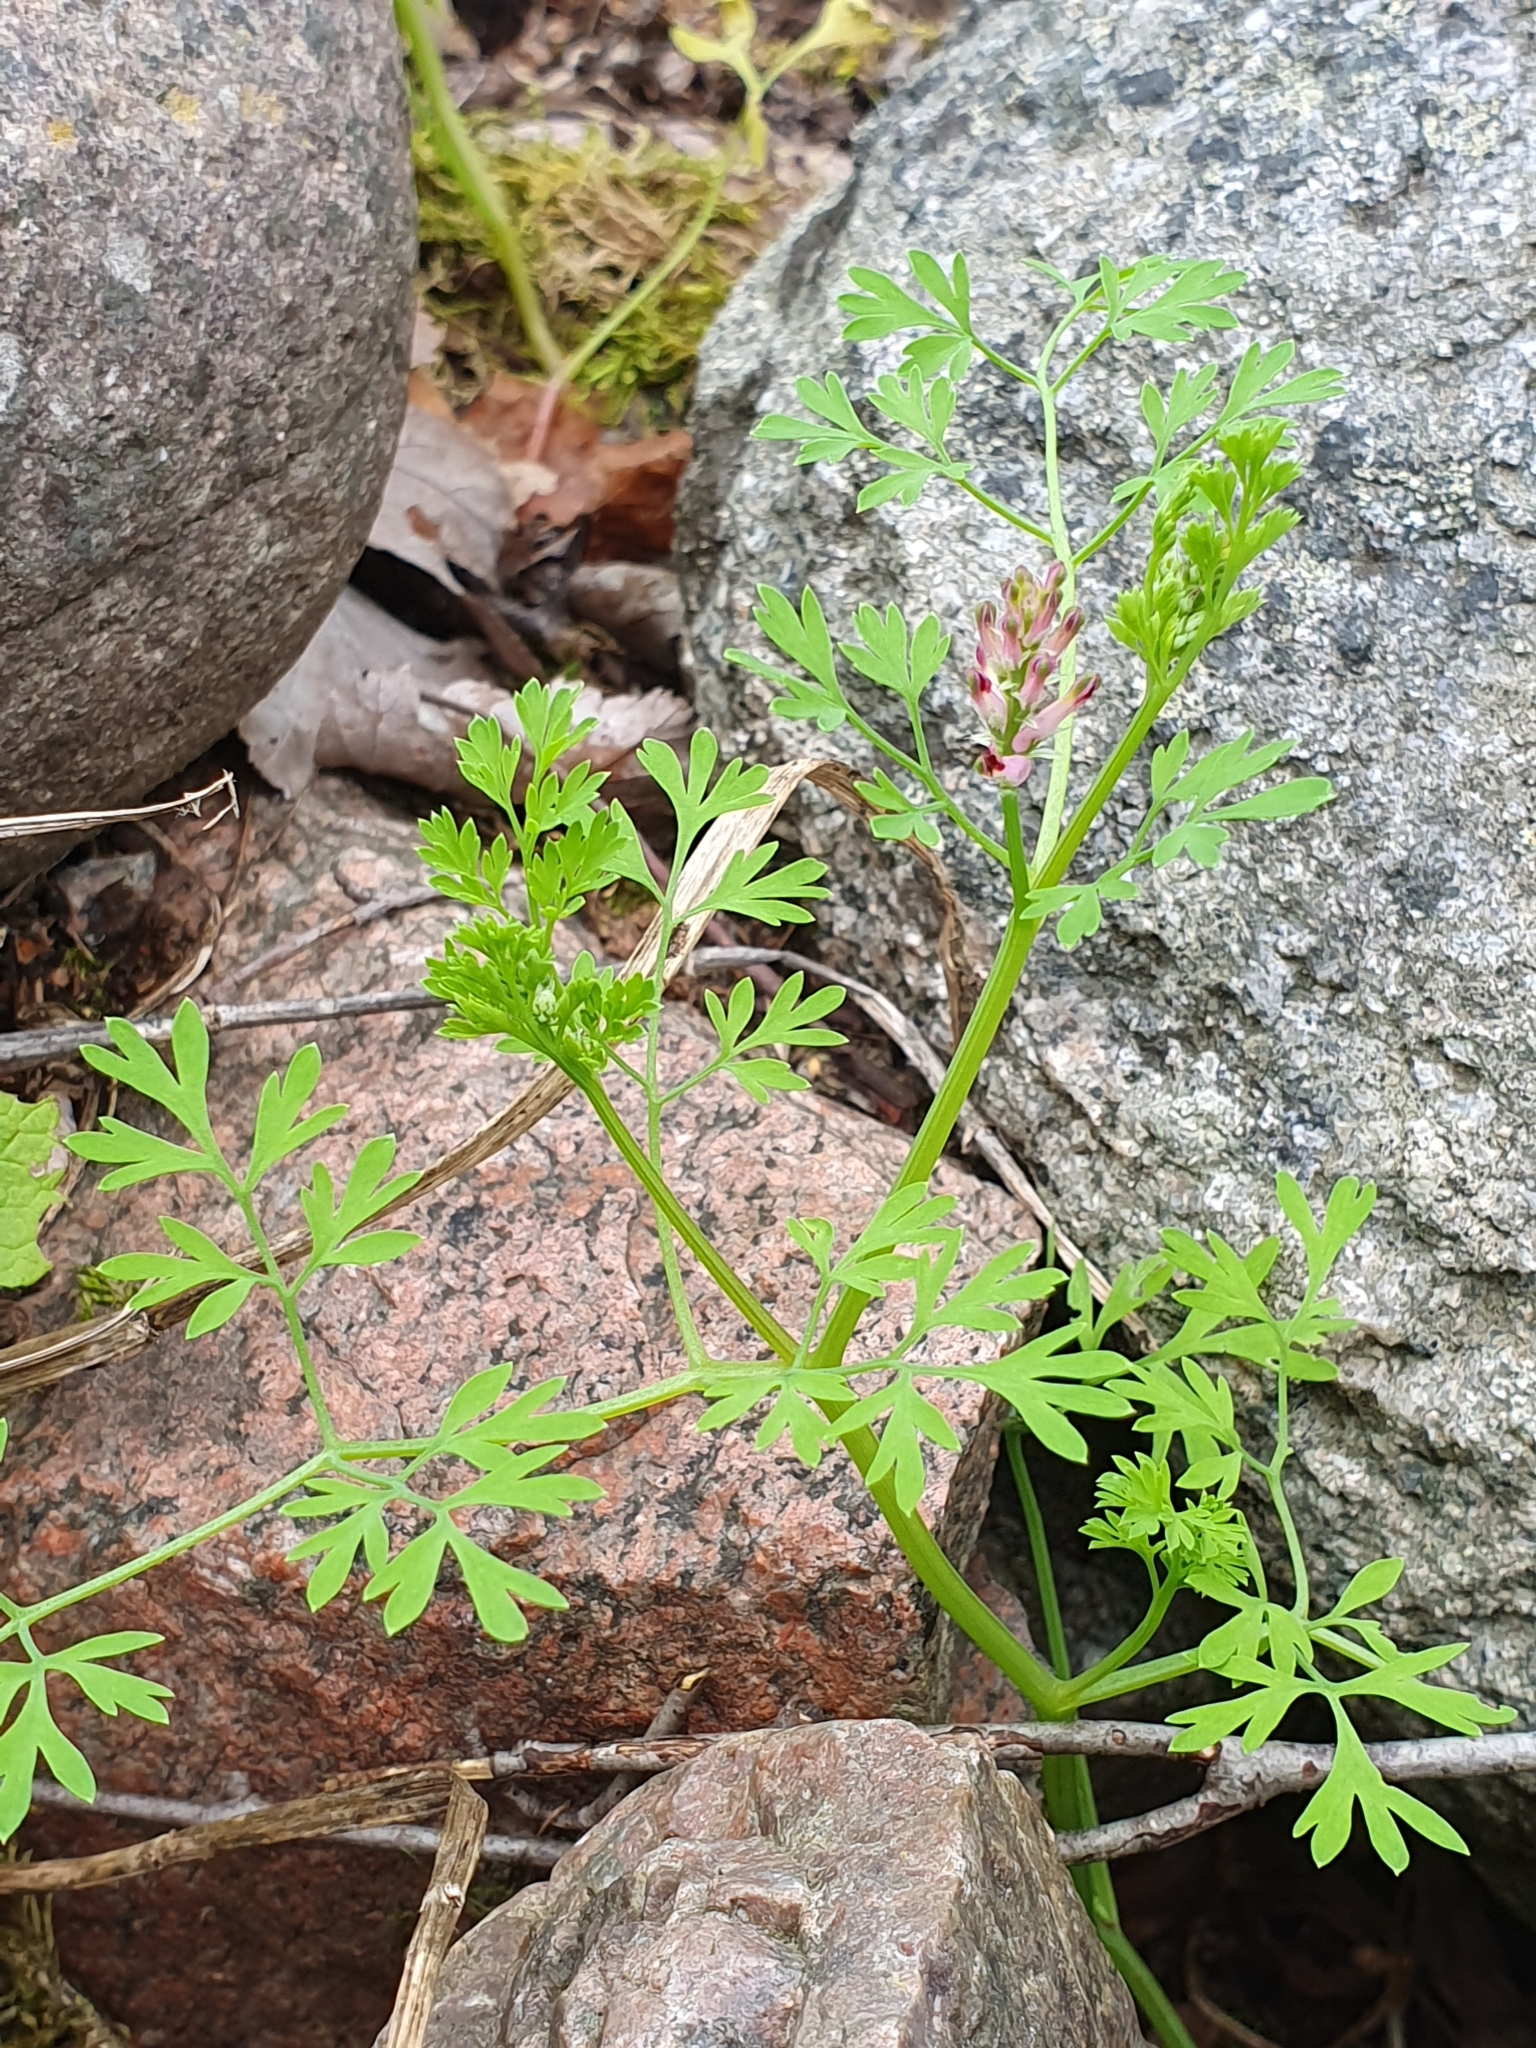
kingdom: Plantae
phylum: Tracheophyta
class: Magnoliopsida
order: Ranunculales
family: Papaveraceae
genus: Fumaria
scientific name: Fumaria officinalis
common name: Common fumitory
